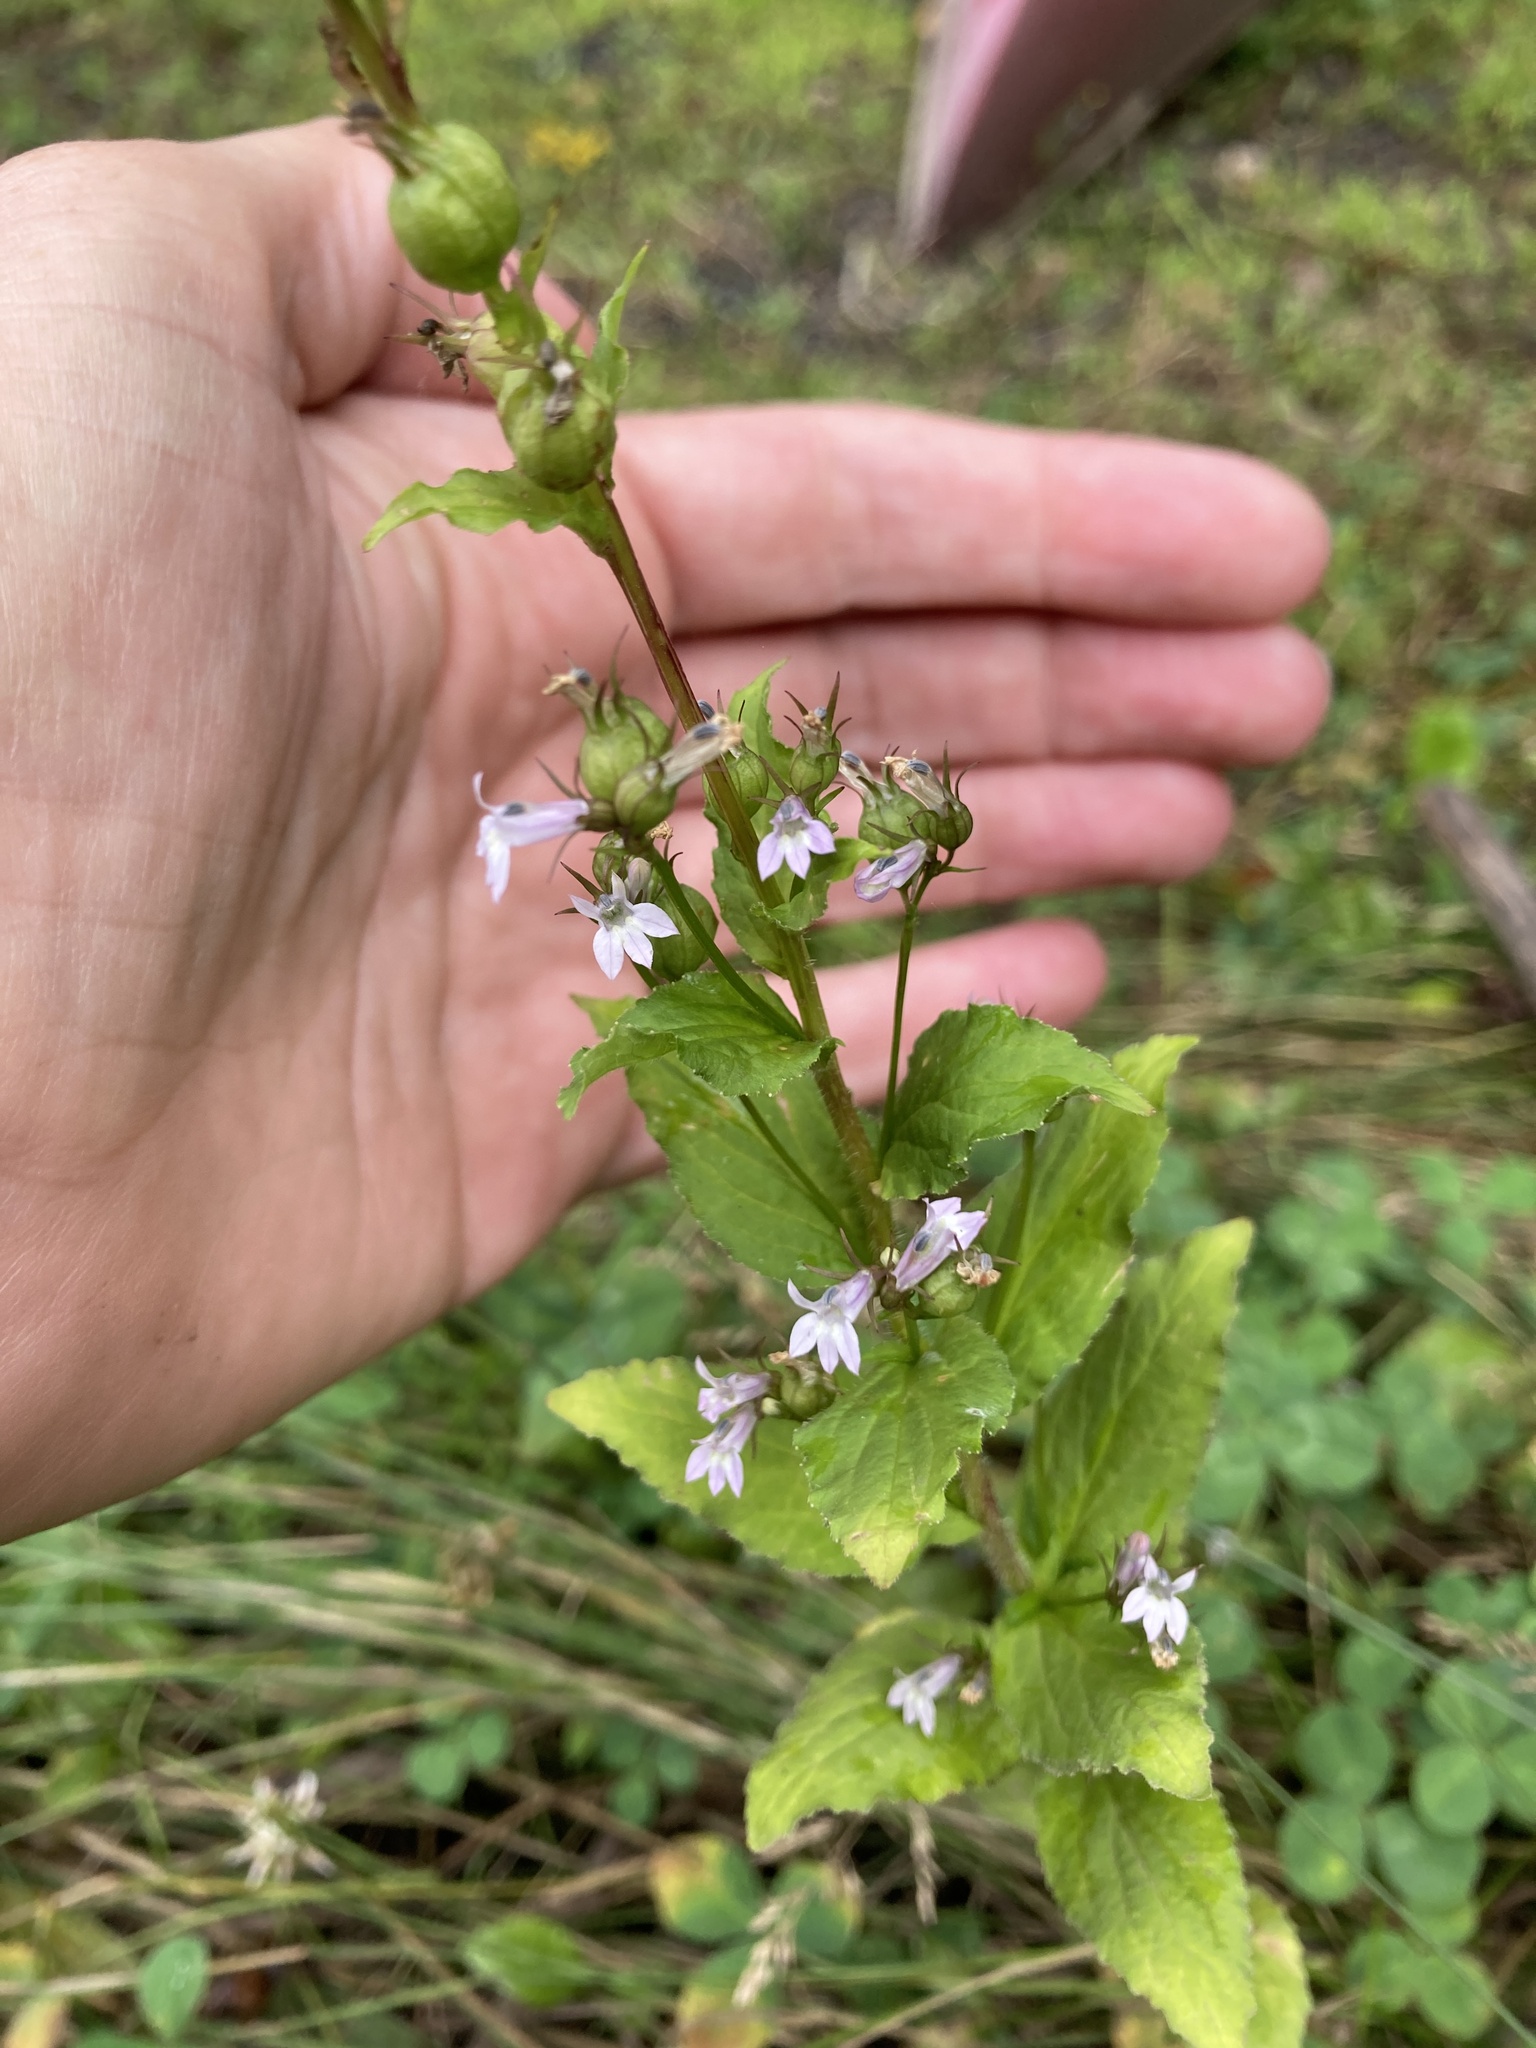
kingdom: Plantae
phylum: Tracheophyta
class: Magnoliopsida
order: Asterales
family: Campanulaceae
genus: Lobelia
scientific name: Lobelia inflata
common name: Indian tobacco
